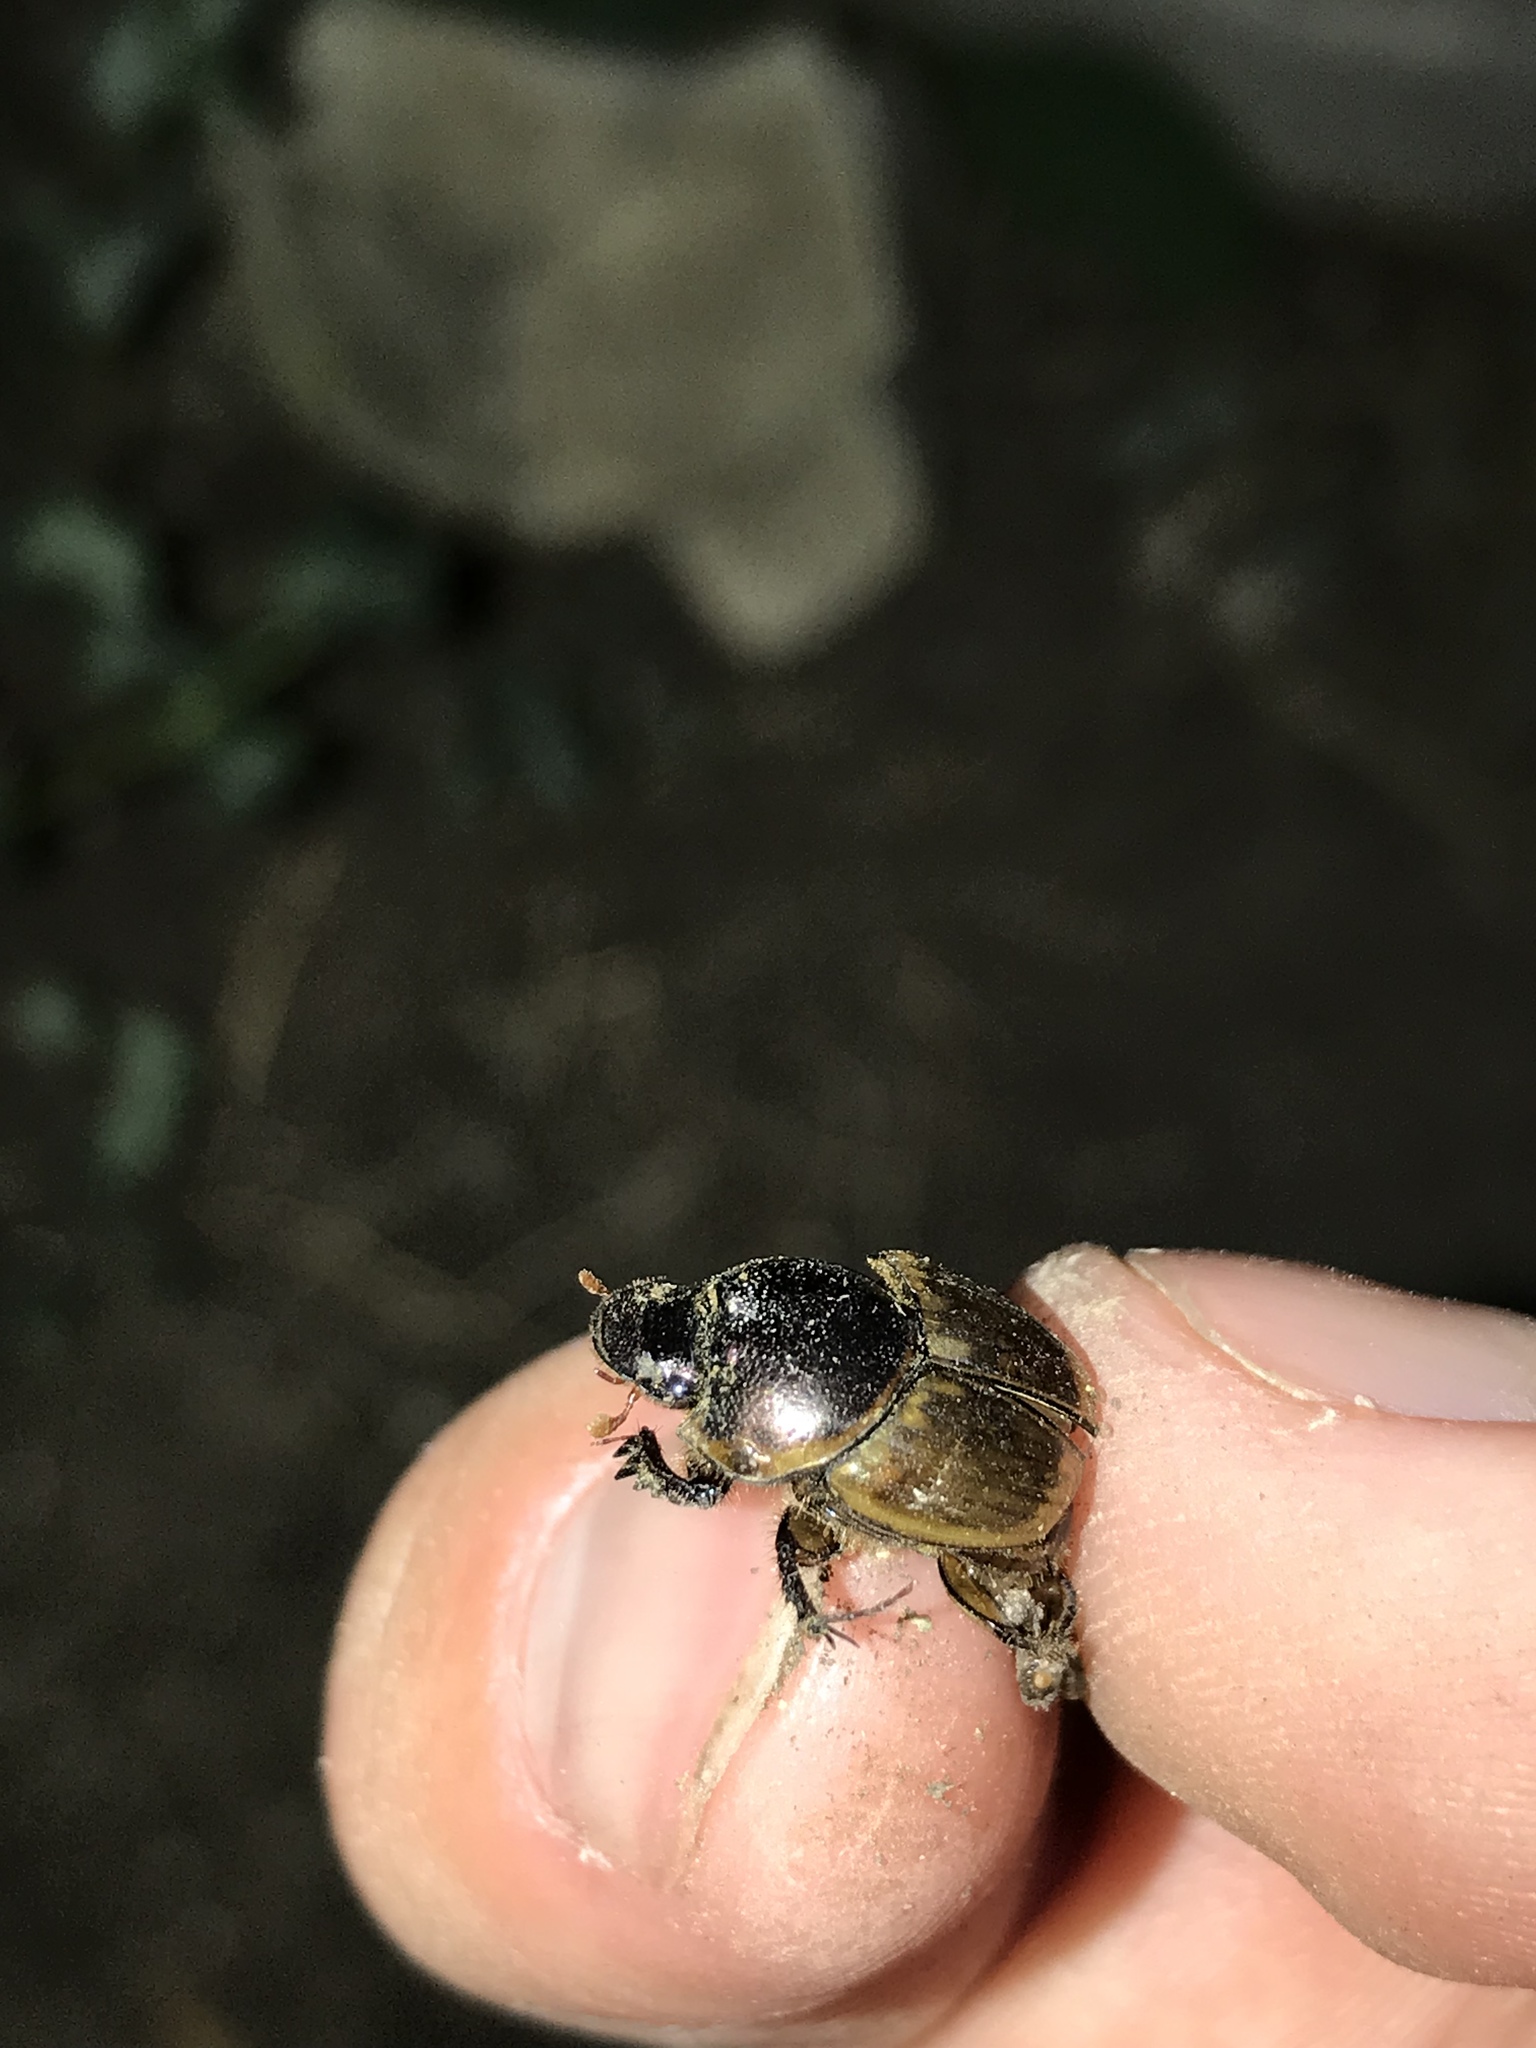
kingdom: Animalia
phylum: Arthropoda
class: Insecta
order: Coleoptera
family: Scarabaeidae
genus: Digitonthophagus
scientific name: Digitonthophagus gazella
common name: Brown dung beetle
